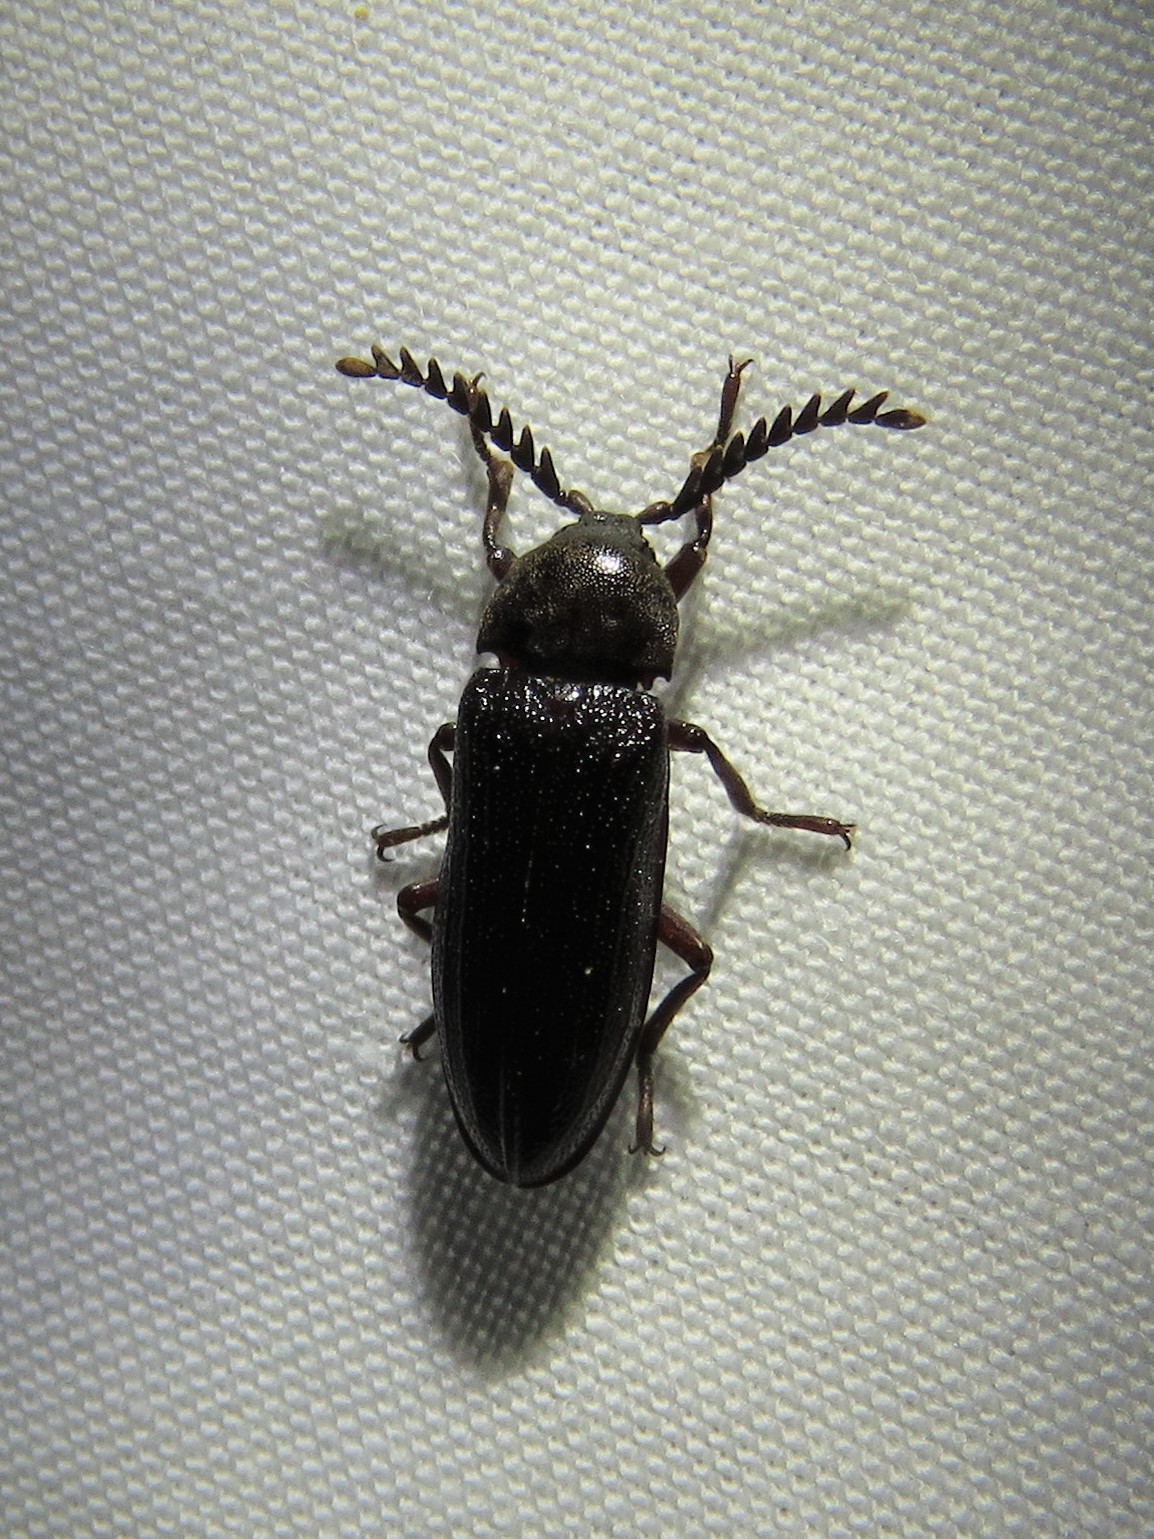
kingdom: Animalia
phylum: Arthropoda
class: Insecta
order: Coleoptera
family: Callirhipidae
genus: Zenoa
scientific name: Zenoa picea
